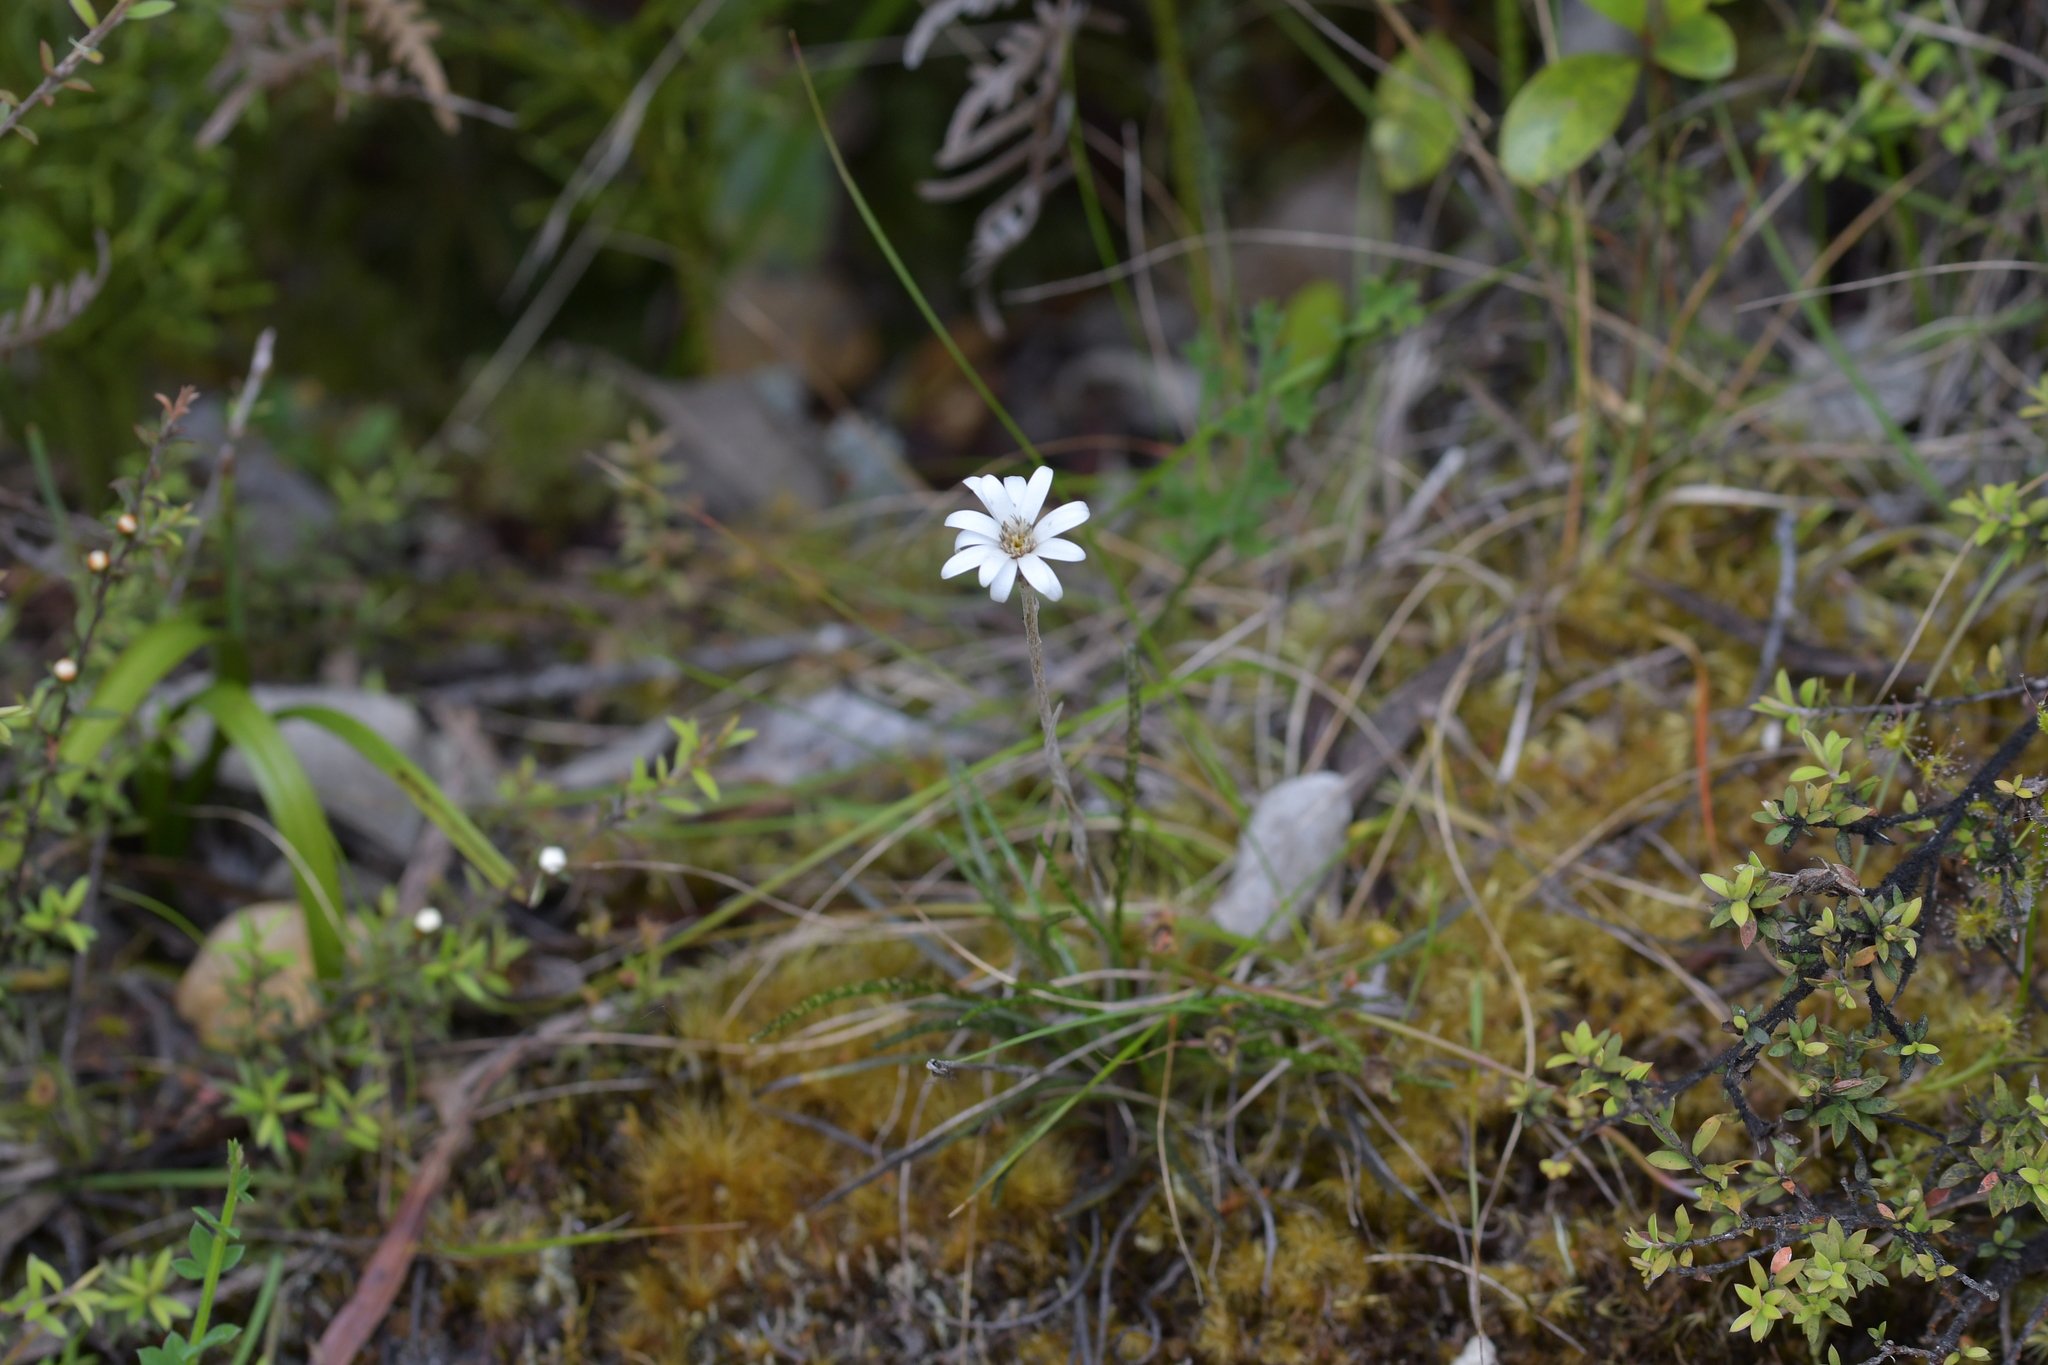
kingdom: Plantae
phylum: Tracheophyta
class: Magnoliopsida
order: Asterales
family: Asteraceae
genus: Celmisia
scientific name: Celmisia gracilenta
